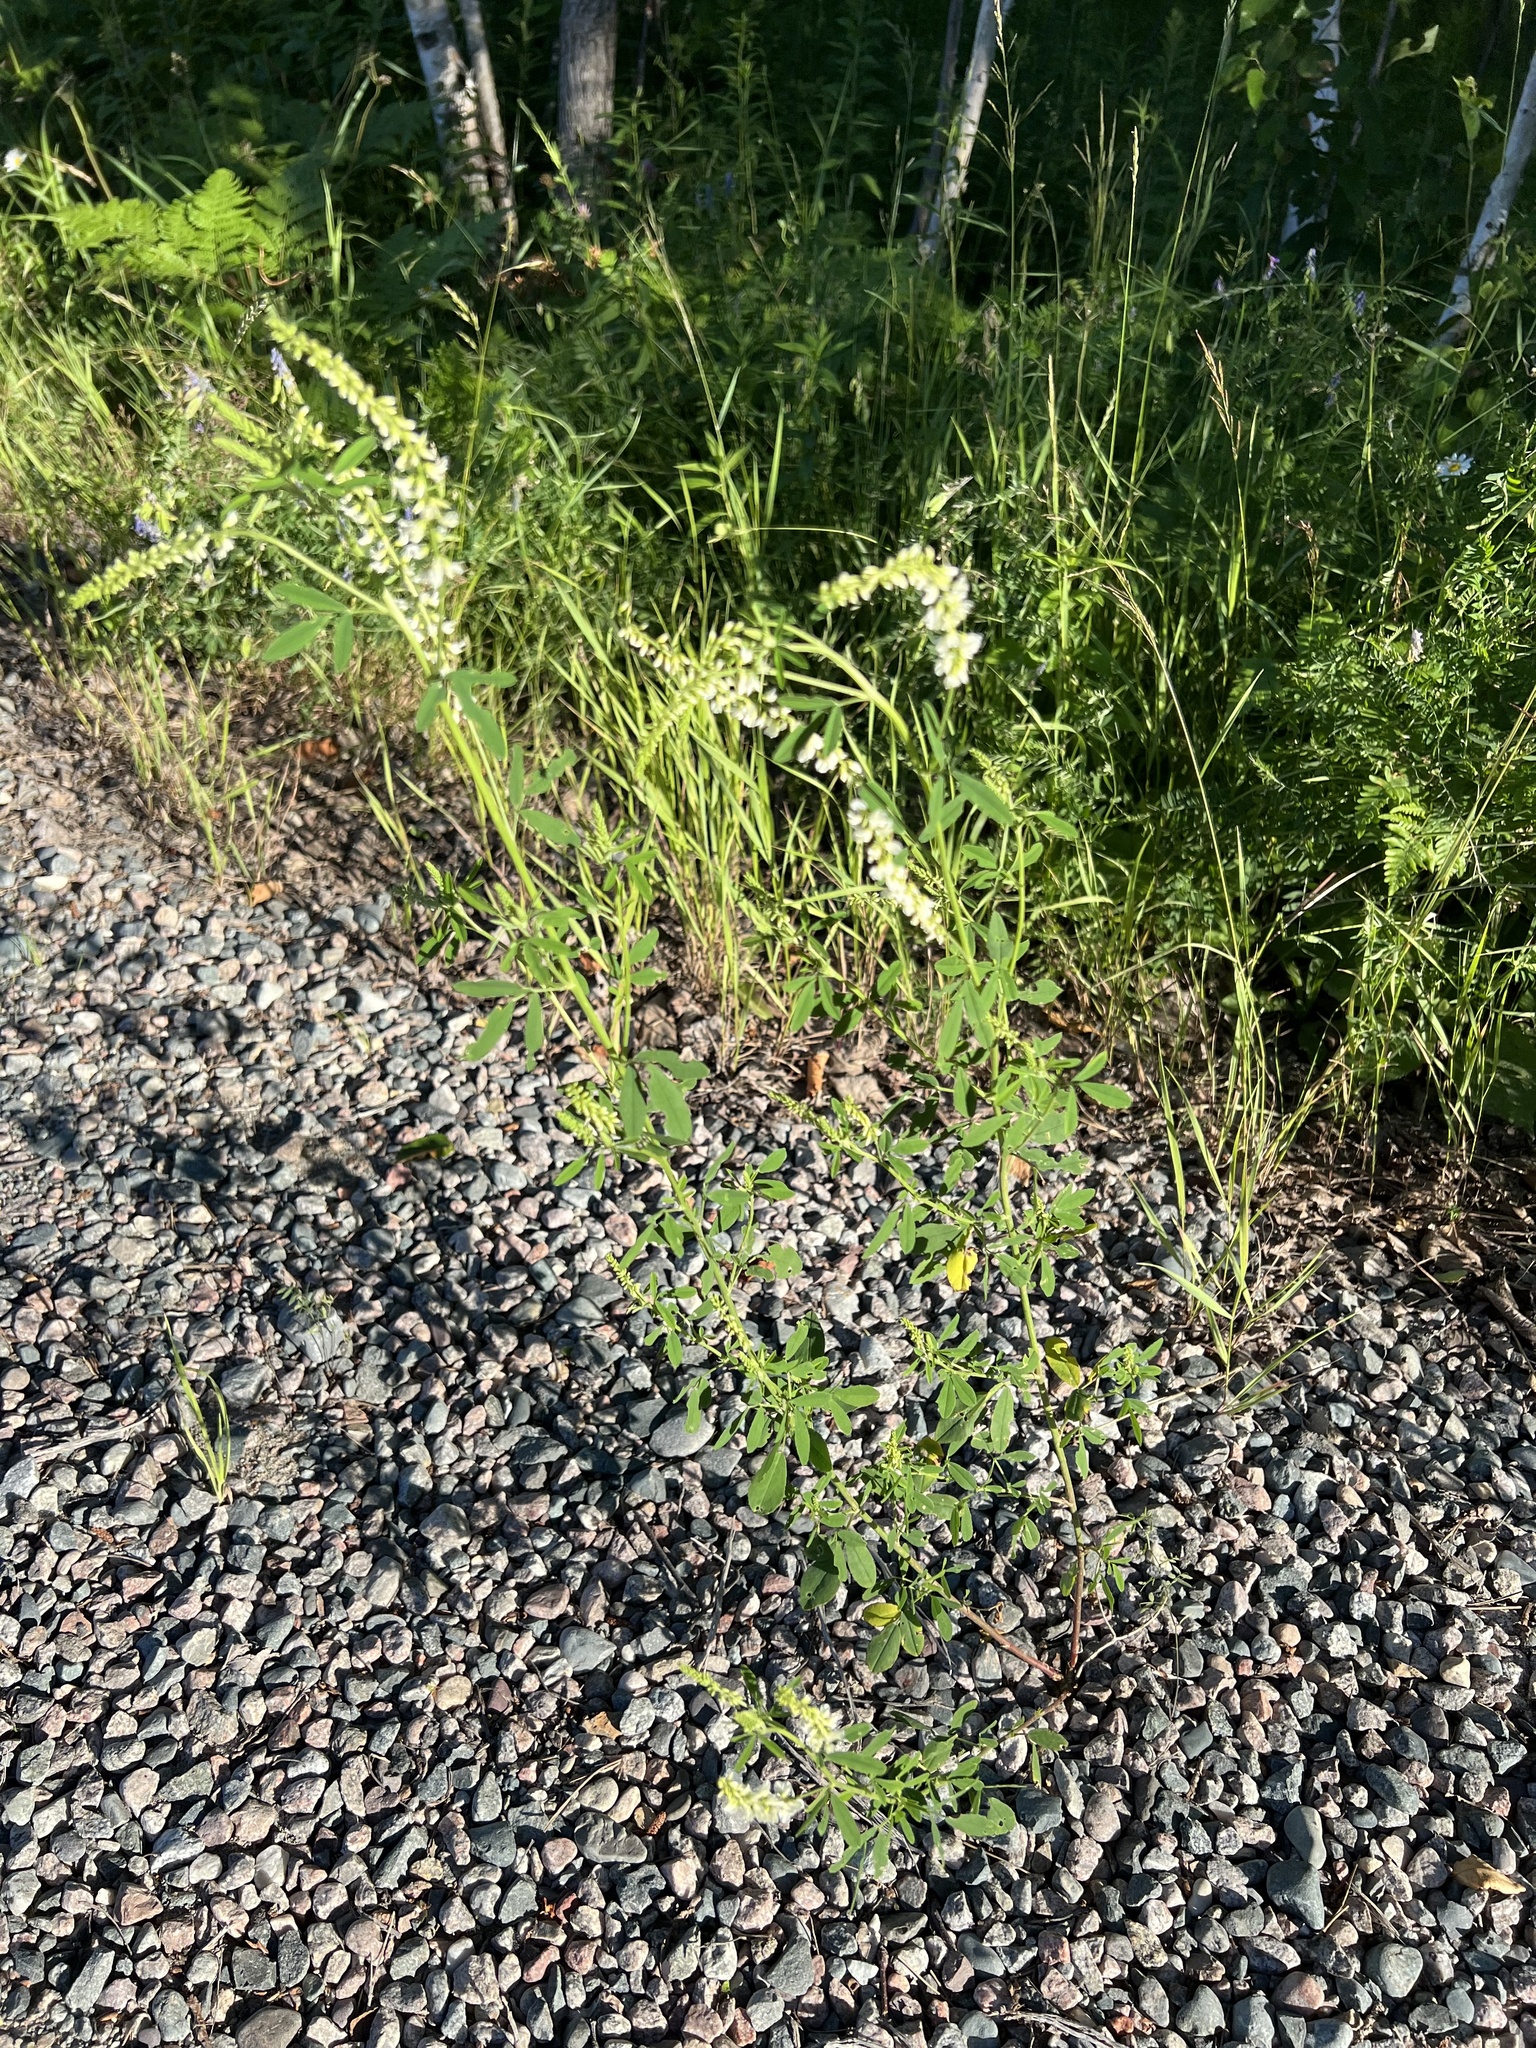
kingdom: Plantae
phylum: Tracheophyta
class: Magnoliopsida
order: Fabales
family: Fabaceae
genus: Melilotus
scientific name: Melilotus albus
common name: White melilot
